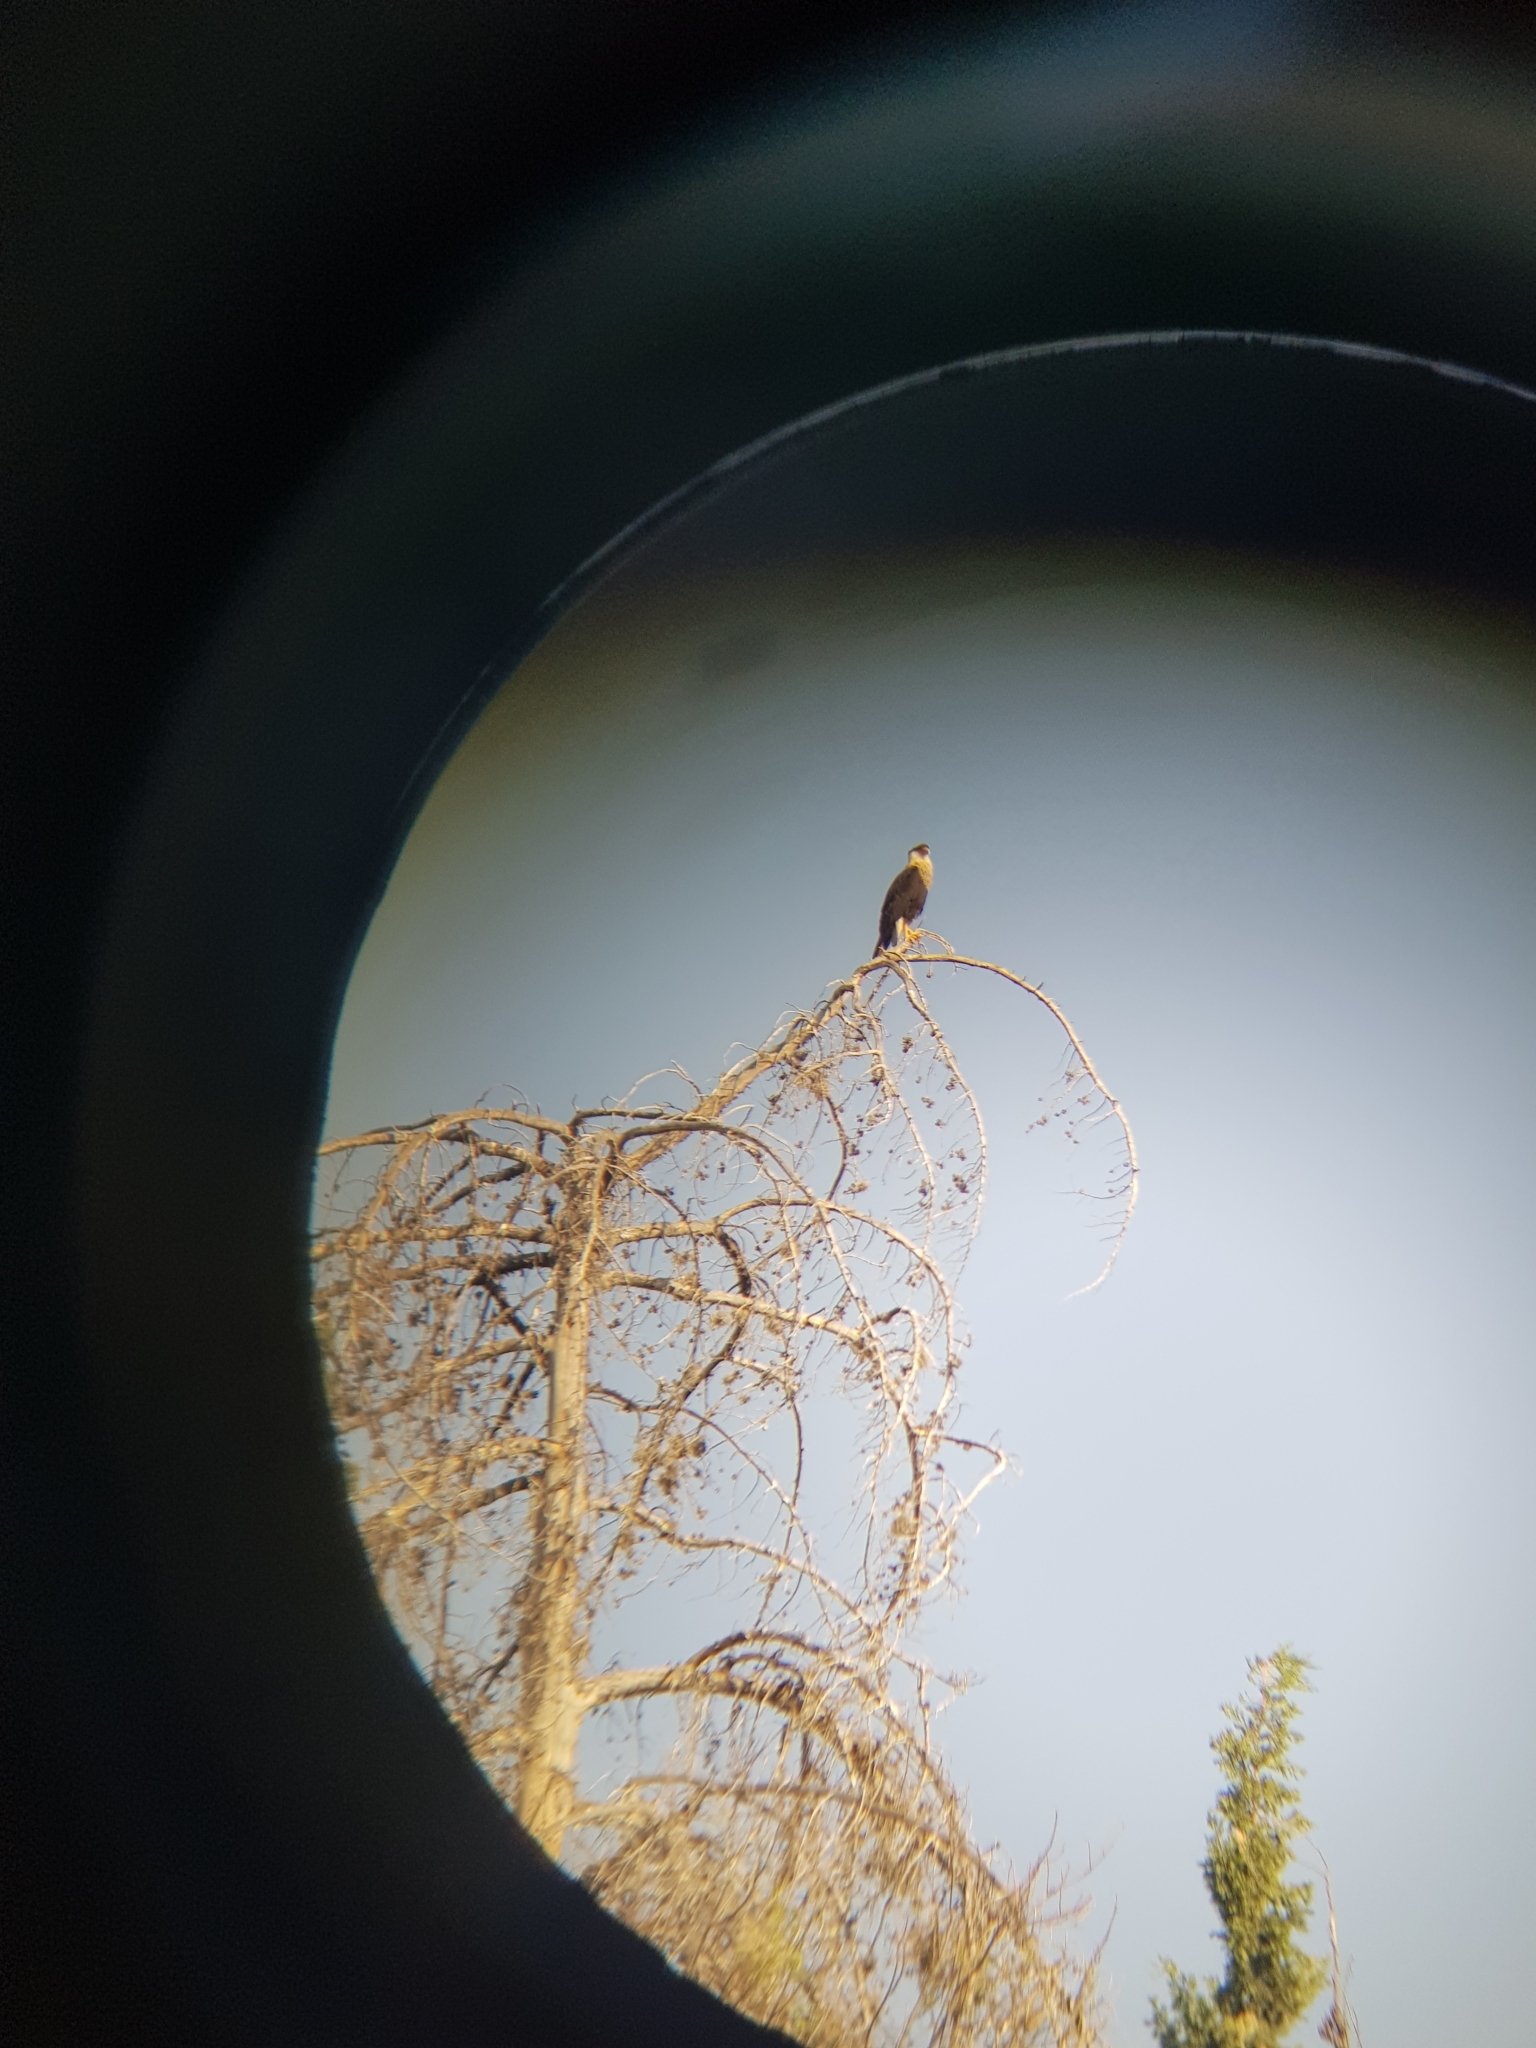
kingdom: Animalia
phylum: Chordata
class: Aves
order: Falconiformes
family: Falconidae
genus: Caracara
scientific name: Caracara plancus
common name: Southern caracara
